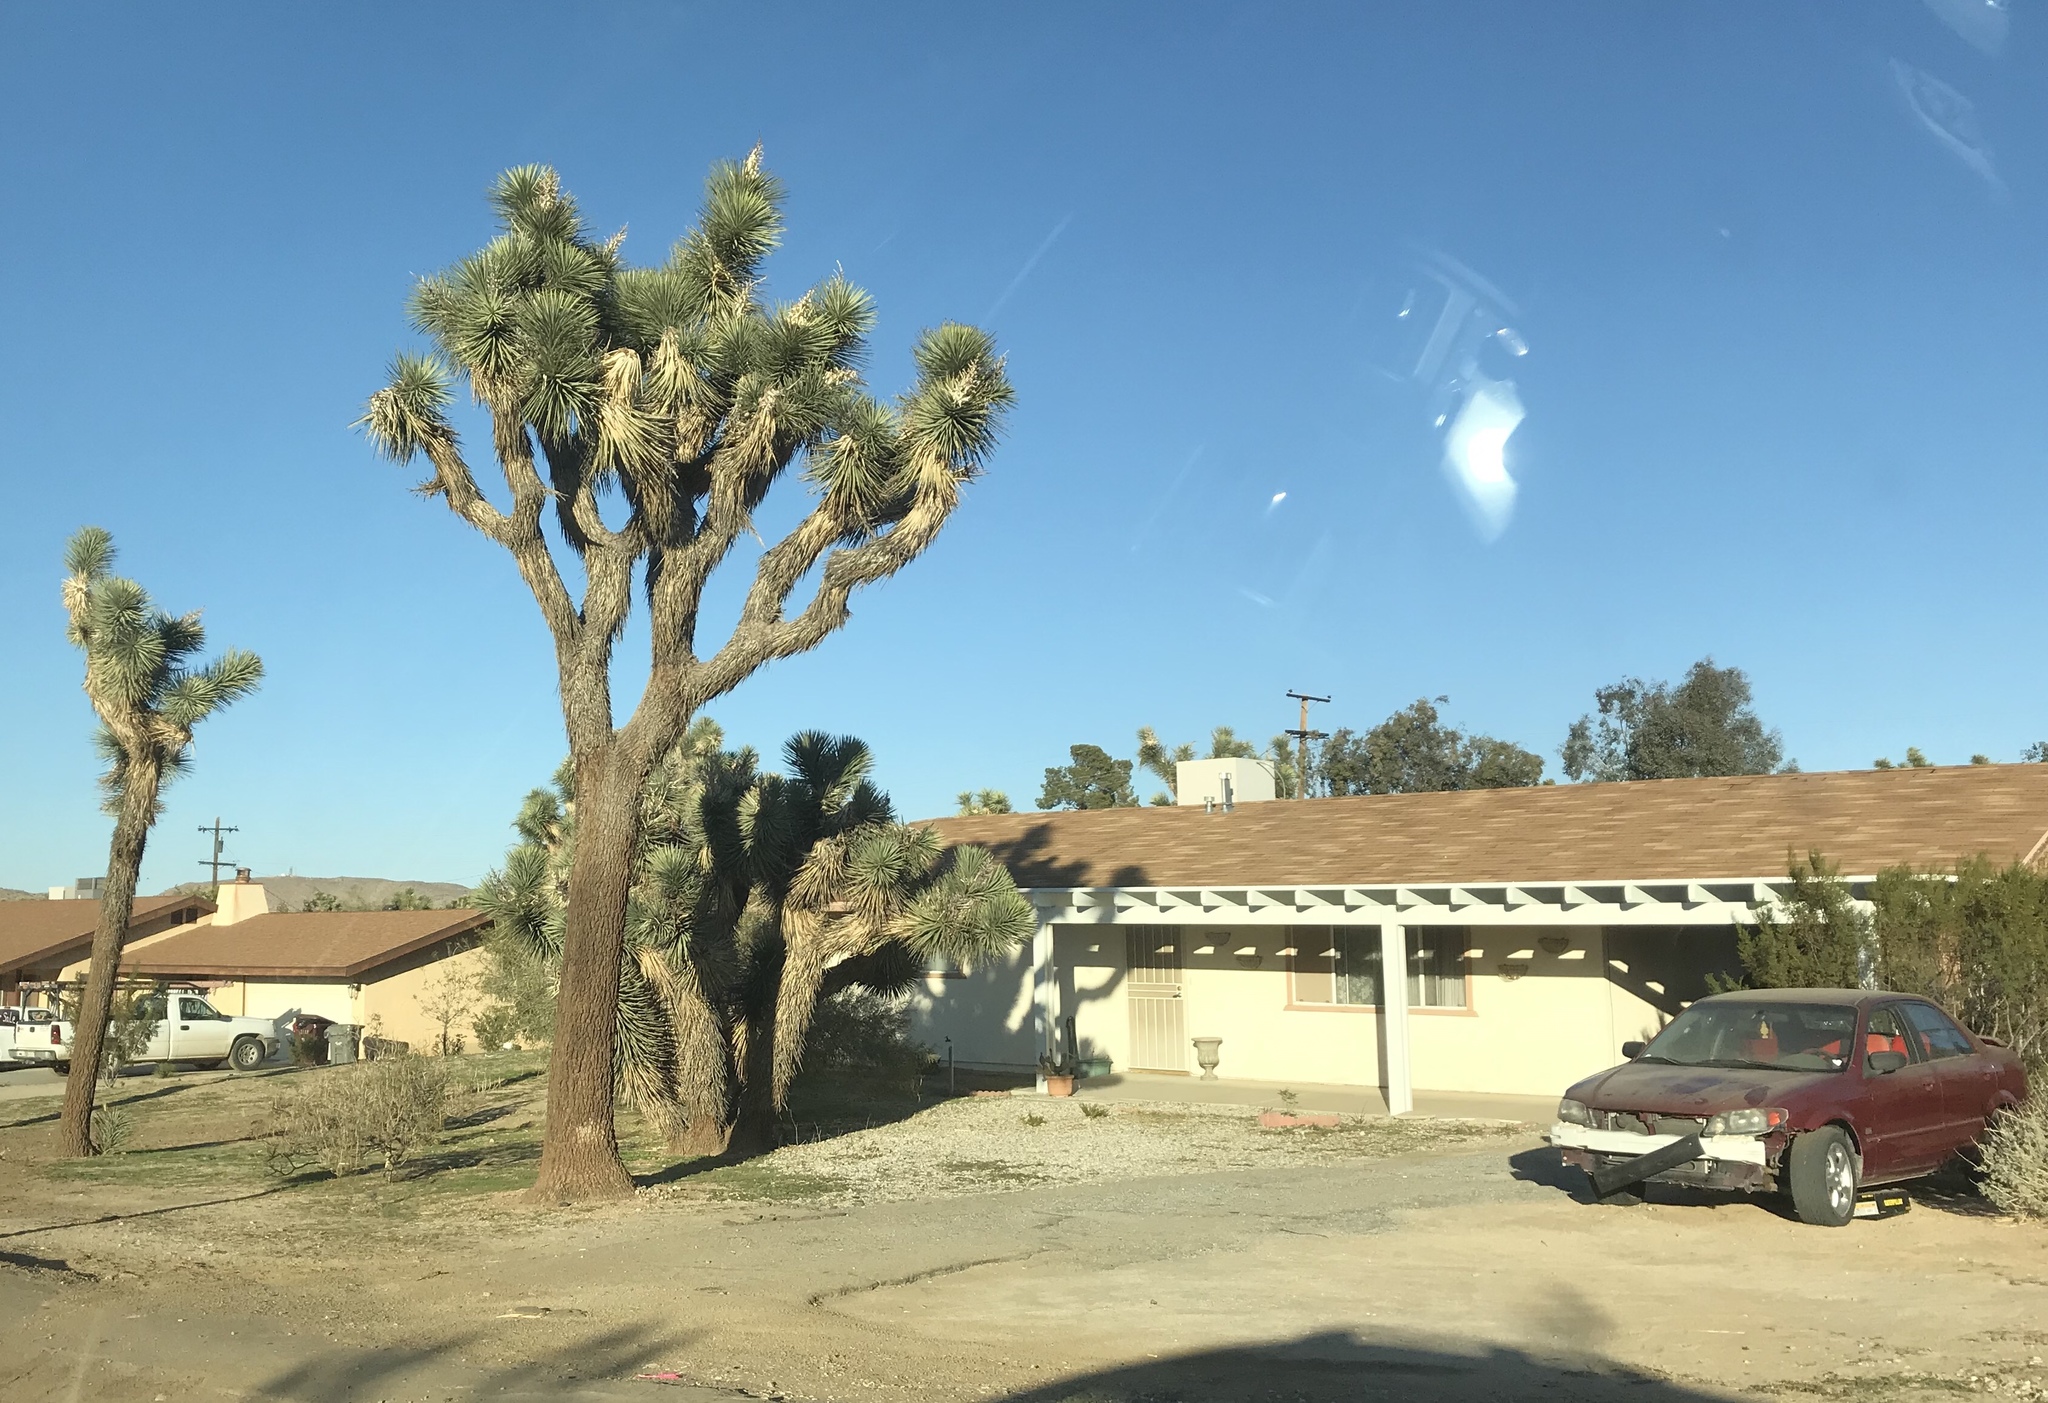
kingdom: Plantae
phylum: Tracheophyta
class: Liliopsida
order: Asparagales
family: Asparagaceae
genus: Yucca
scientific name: Yucca brevifolia
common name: Joshua tree
